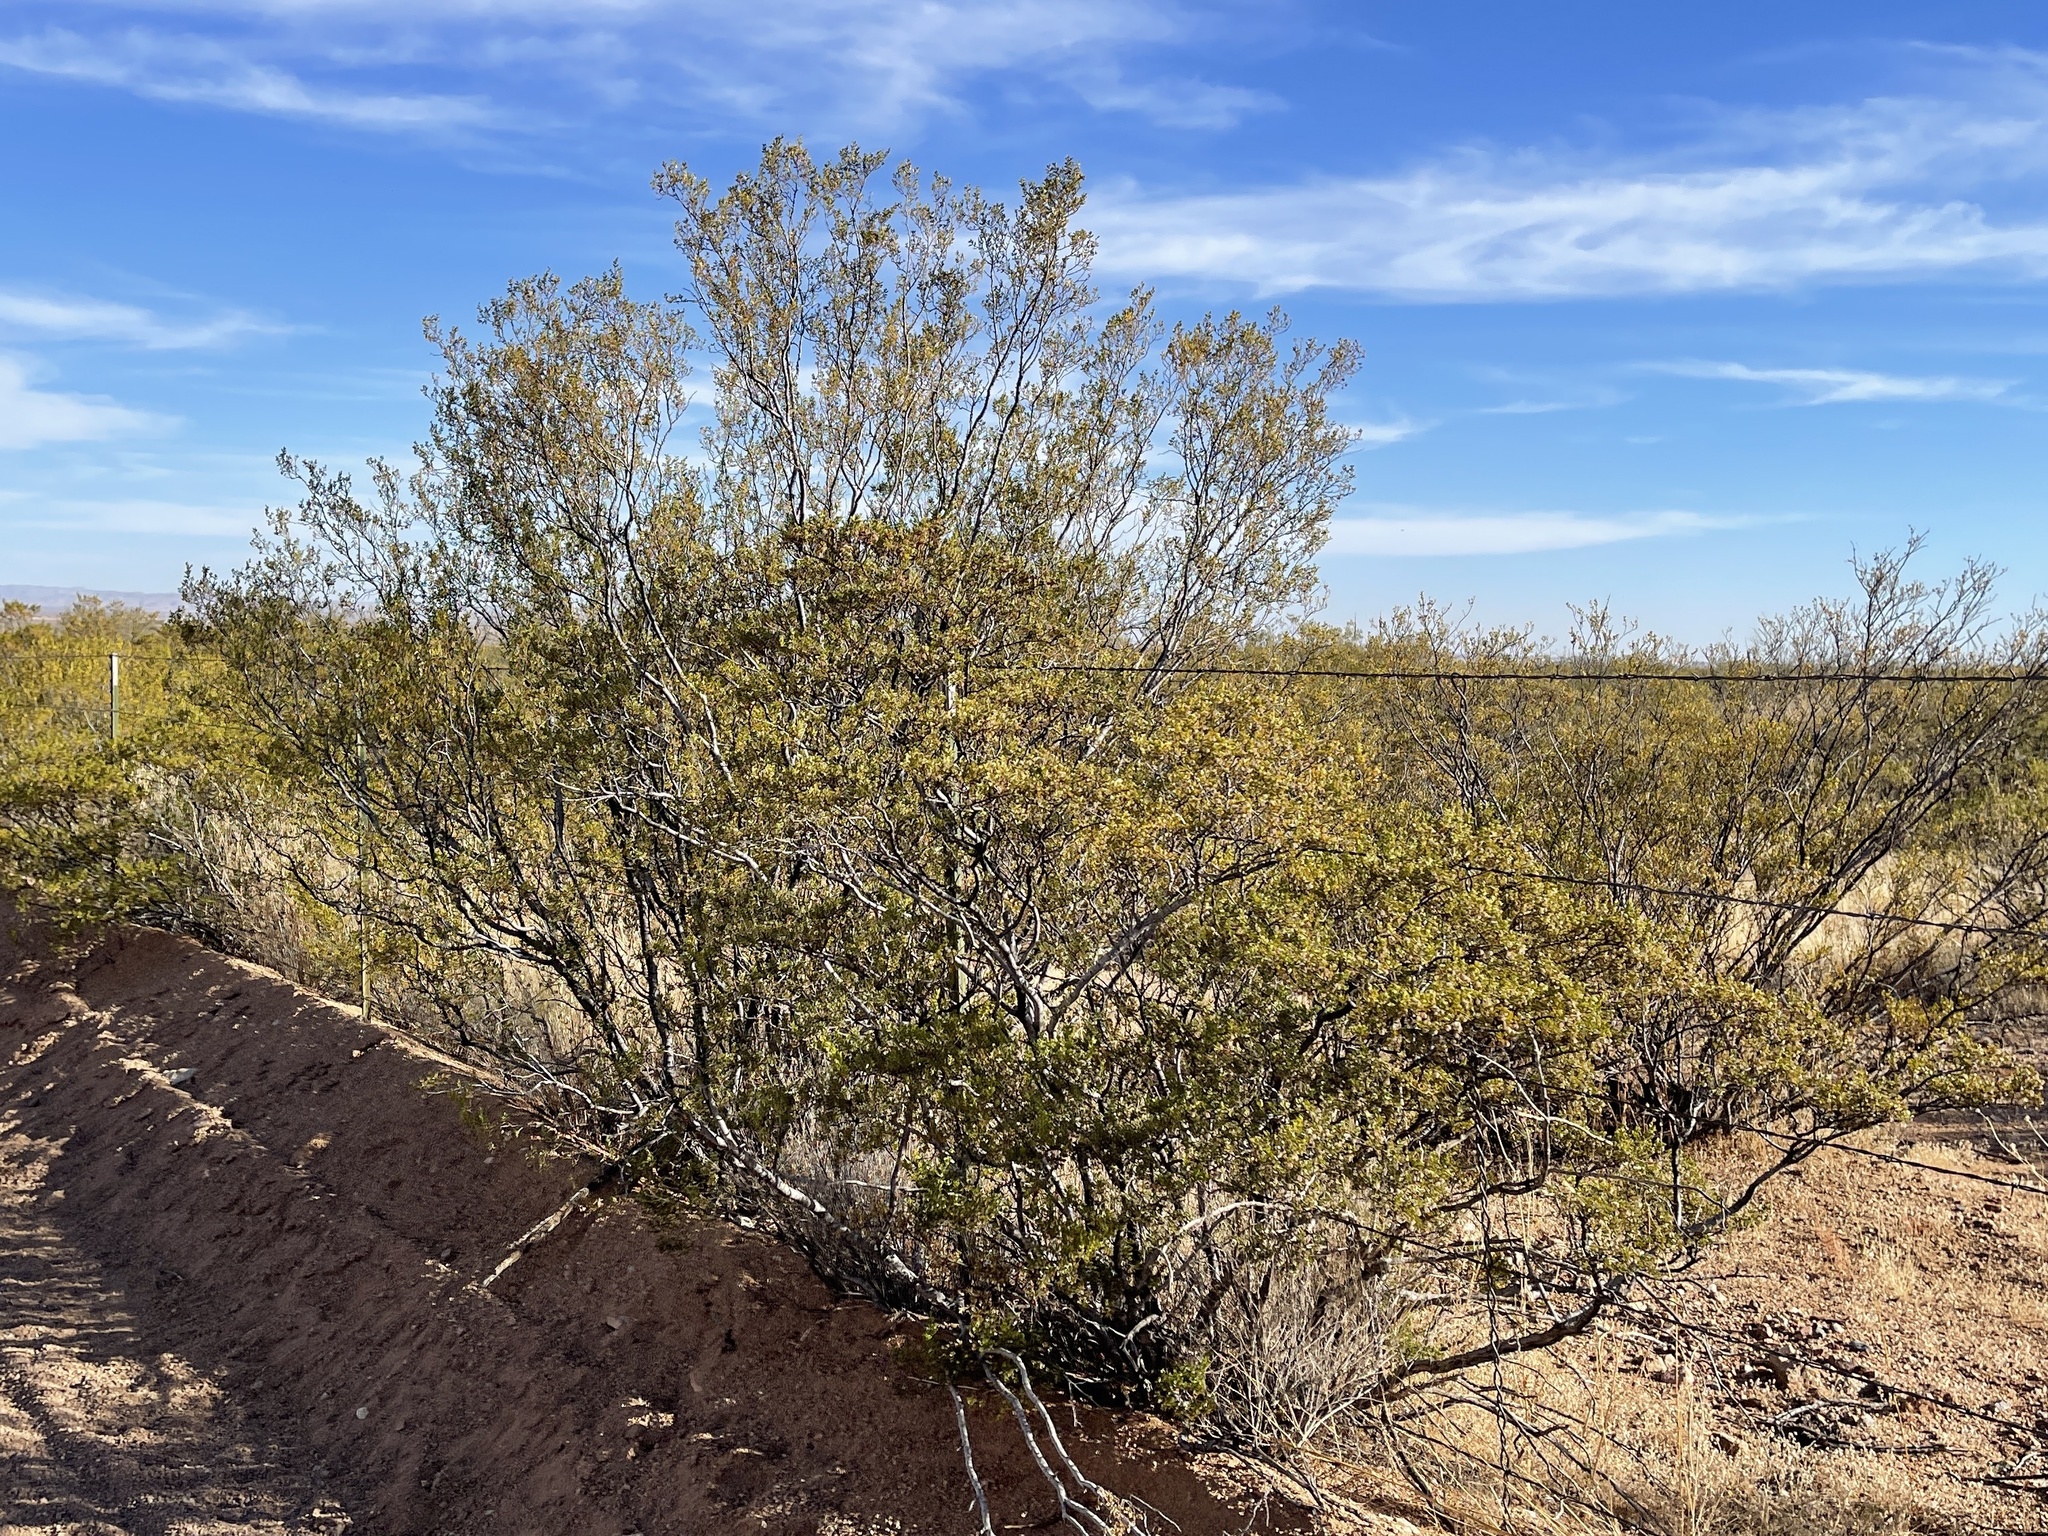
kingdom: Plantae
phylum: Tracheophyta
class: Magnoliopsida
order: Zygophyllales
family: Zygophyllaceae
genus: Larrea
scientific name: Larrea tridentata
